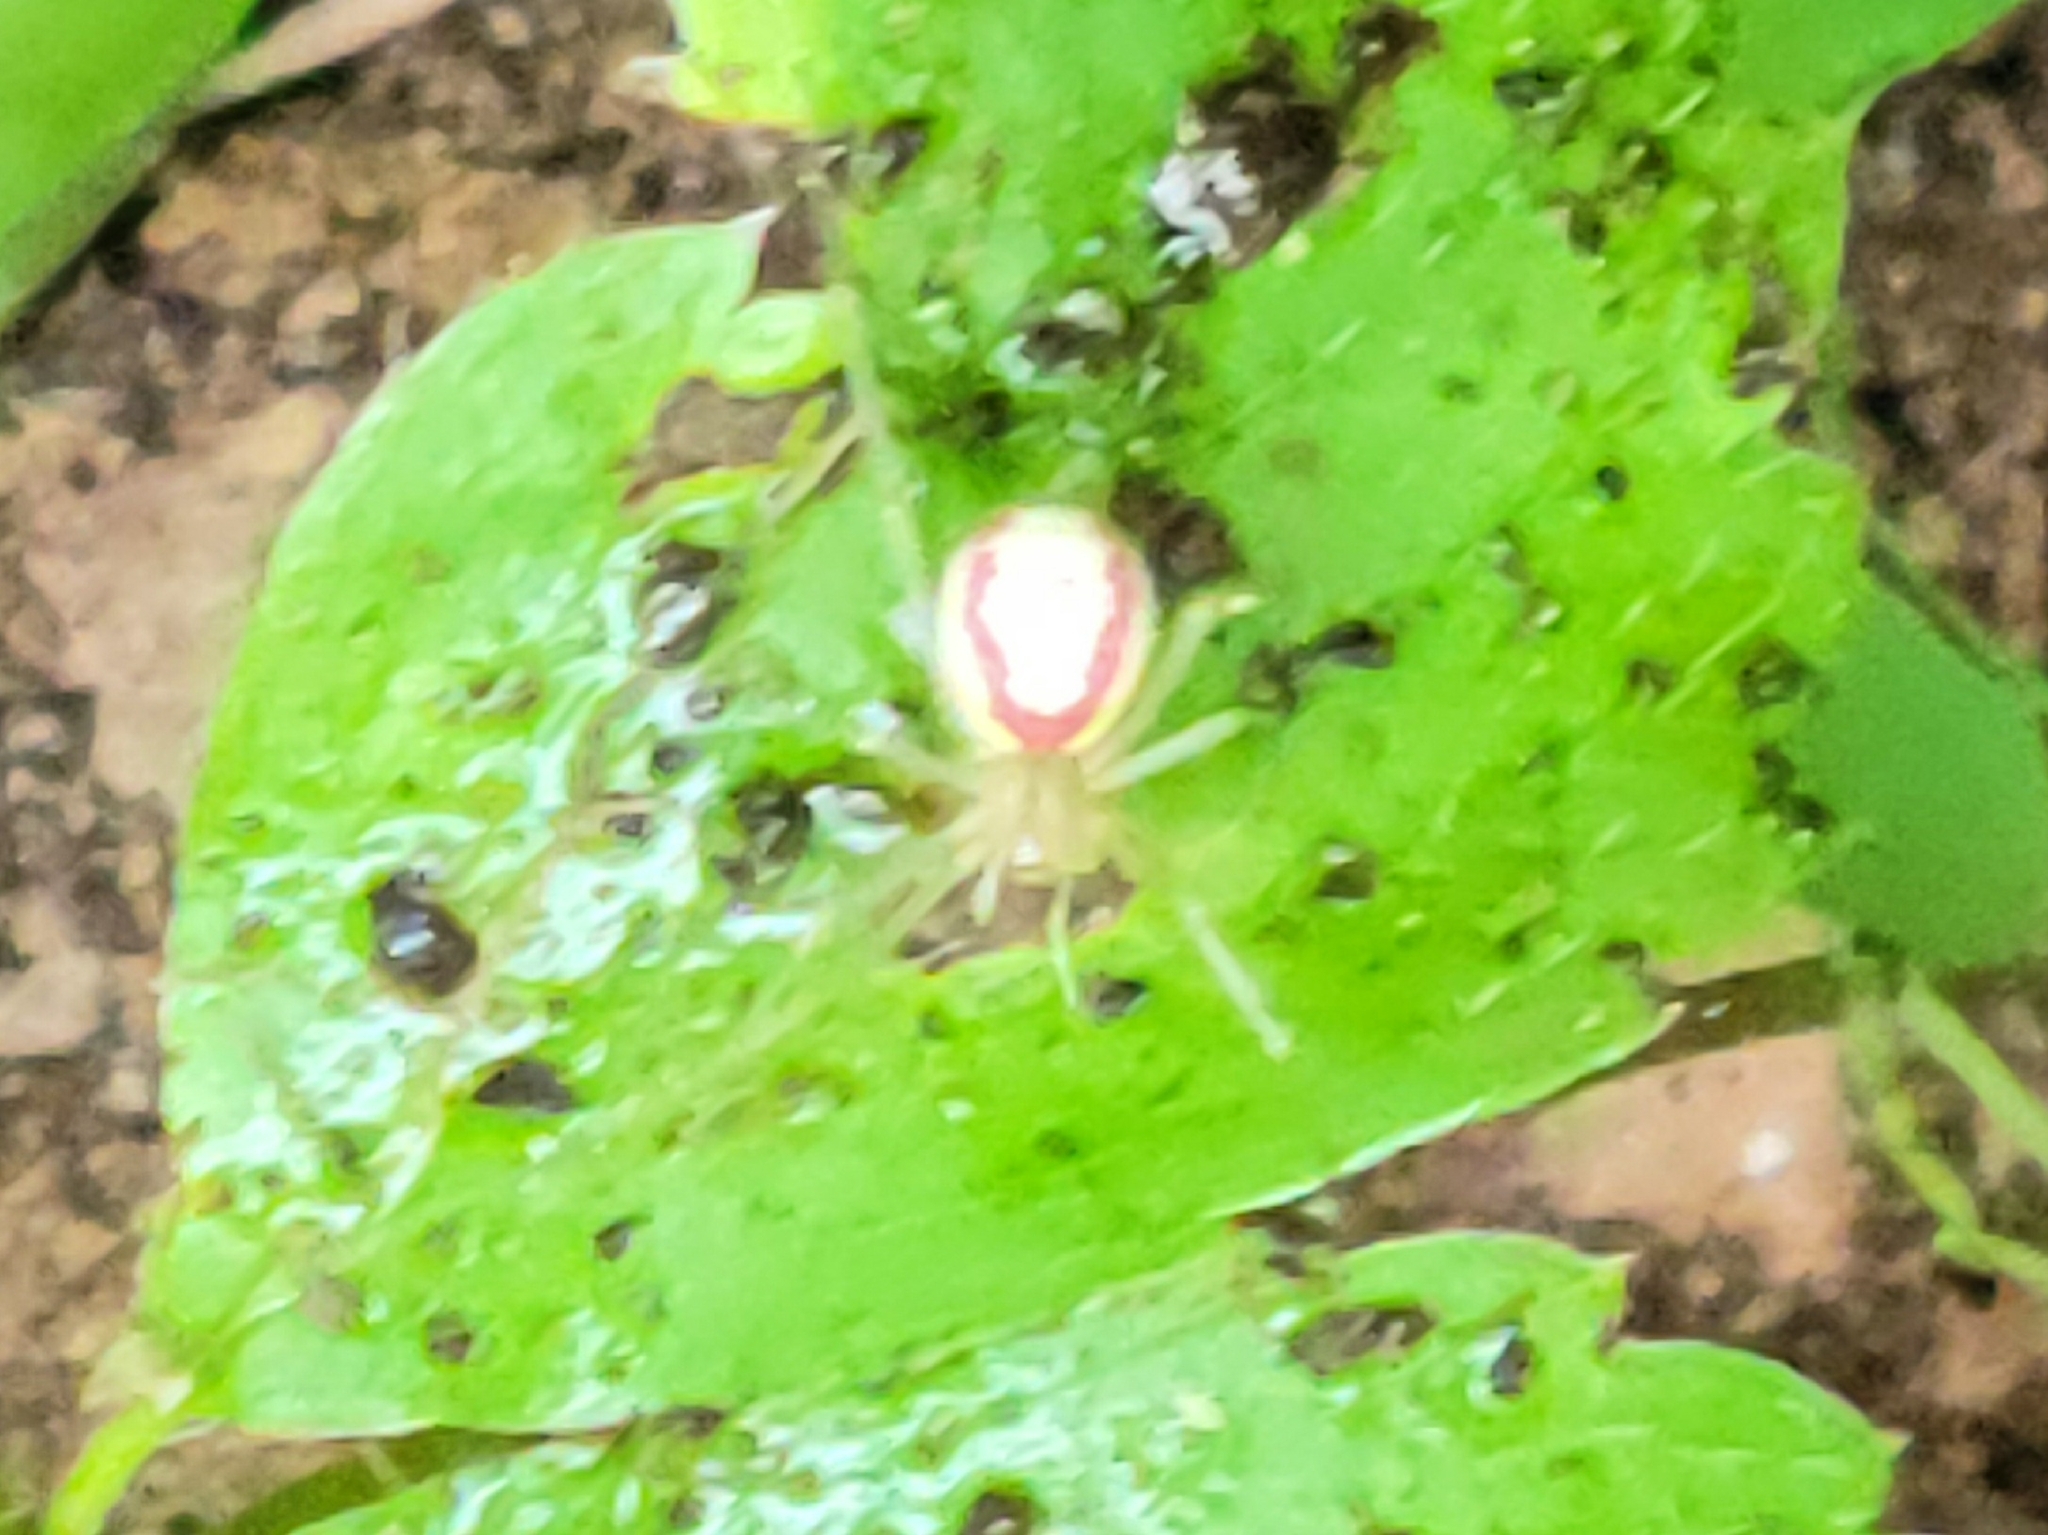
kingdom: Animalia
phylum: Arthropoda
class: Arachnida
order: Araneae
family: Theridiidae
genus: Enoplognatha
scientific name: Enoplognatha ovata
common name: Common candy-striped spider
